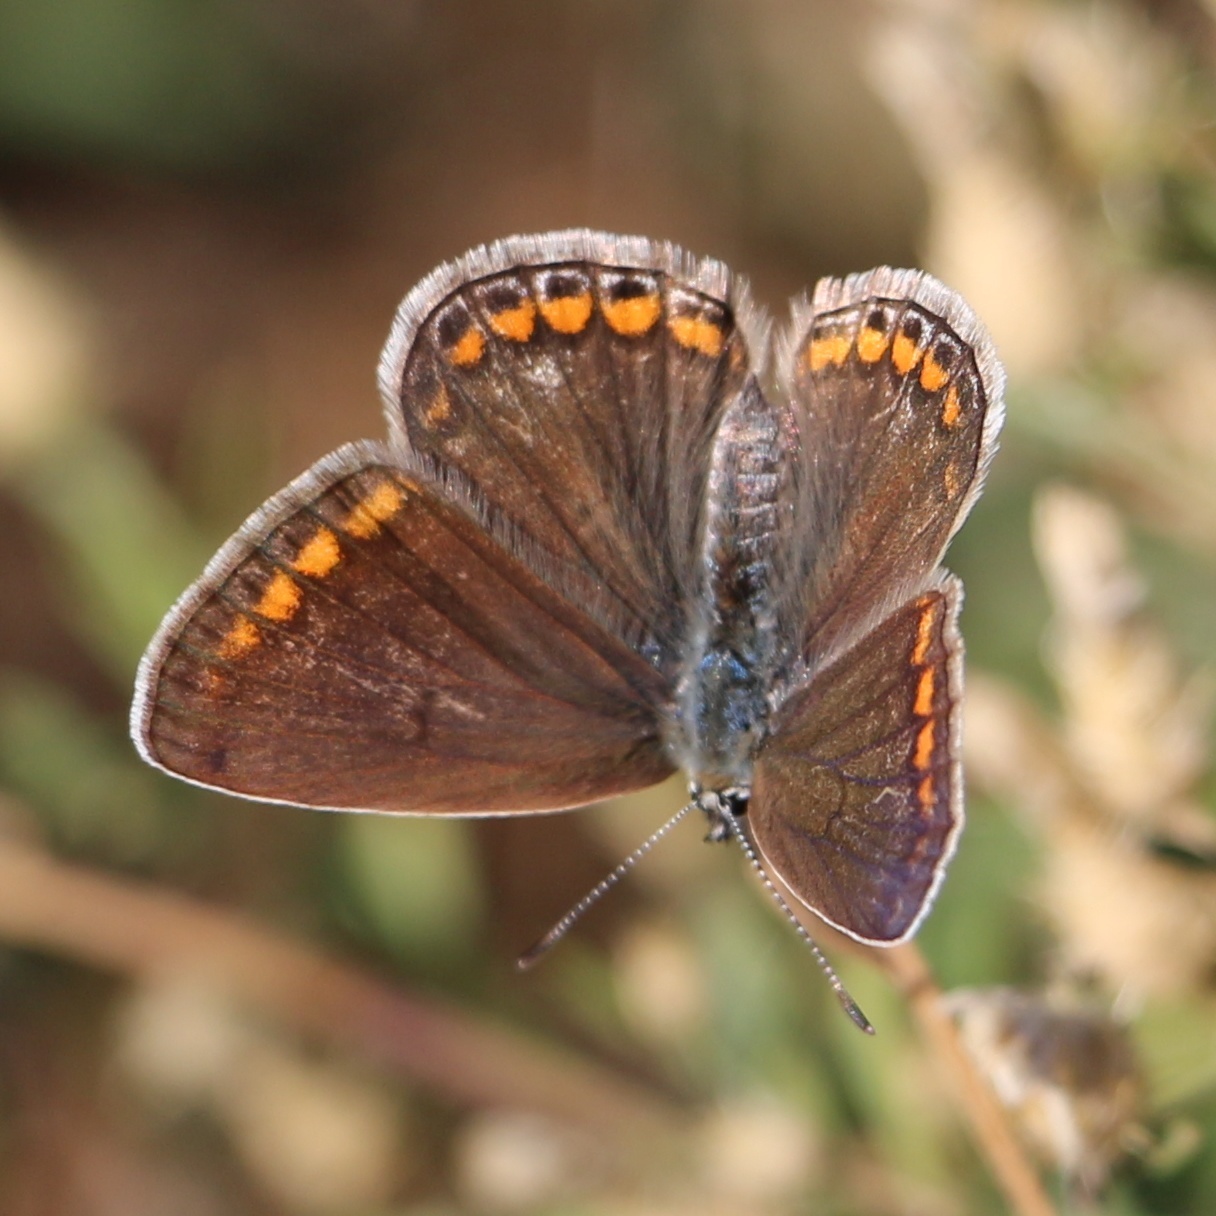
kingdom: Animalia
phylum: Arthropoda
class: Insecta
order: Lepidoptera
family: Lycaenidae
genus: Polyommatus
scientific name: Polyommatus icarus
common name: Common blue
